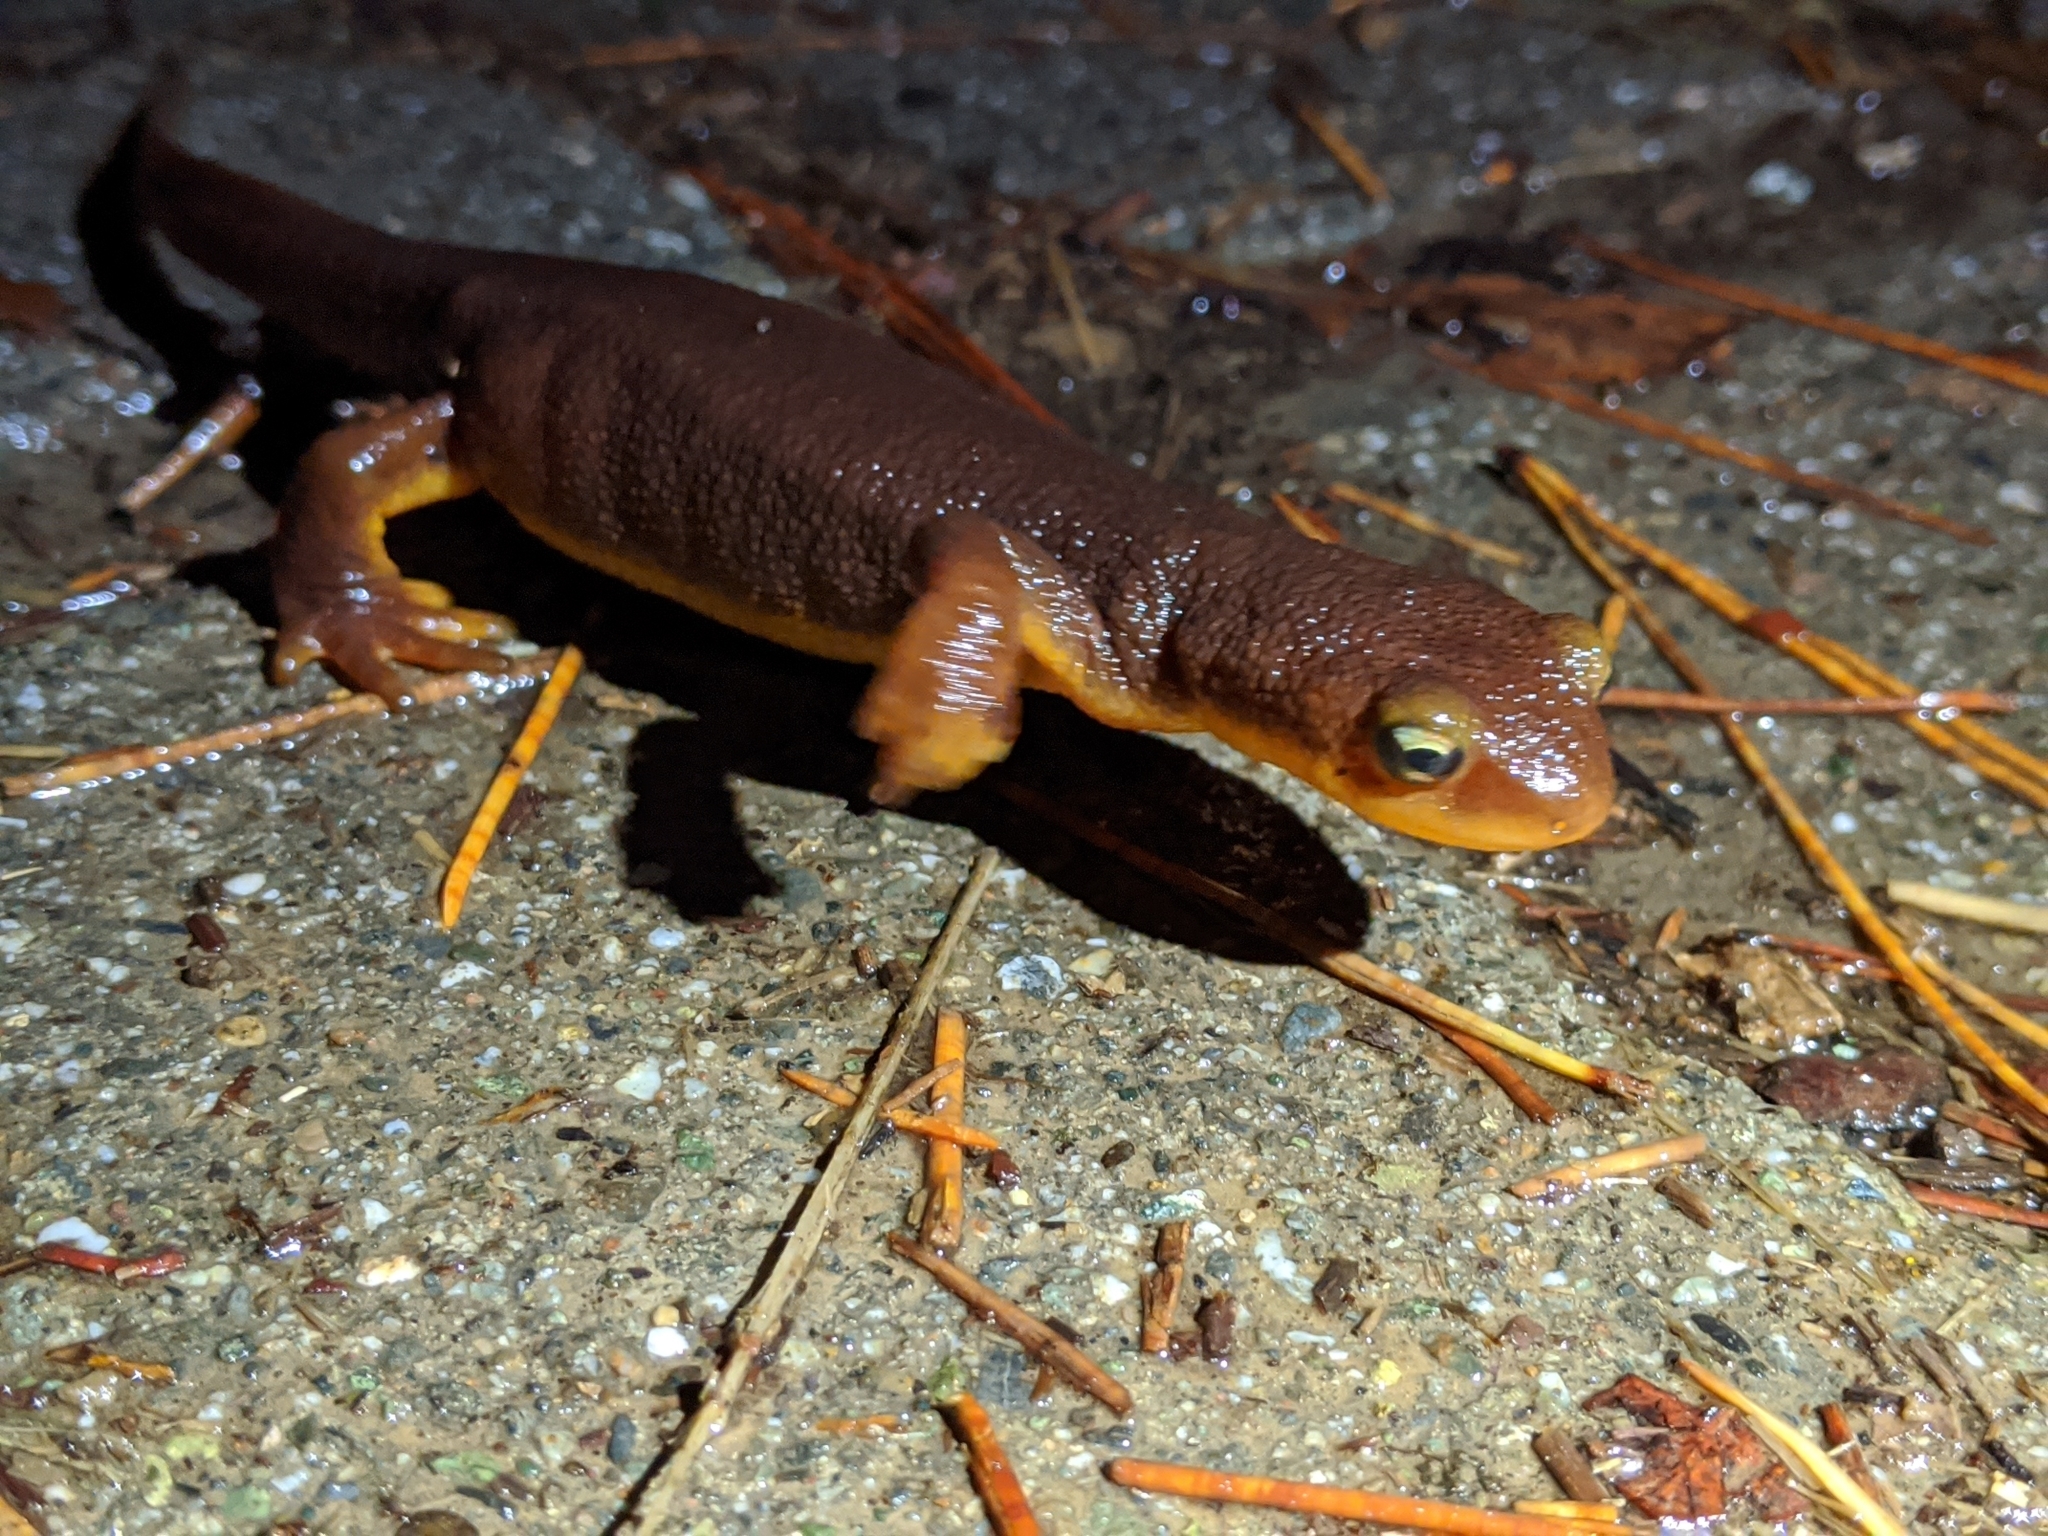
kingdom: Animalia
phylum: Chordata
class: Amphibia
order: Caudata
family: Salamandridae
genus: Taricha
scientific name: Taricha torosa
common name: California newt
